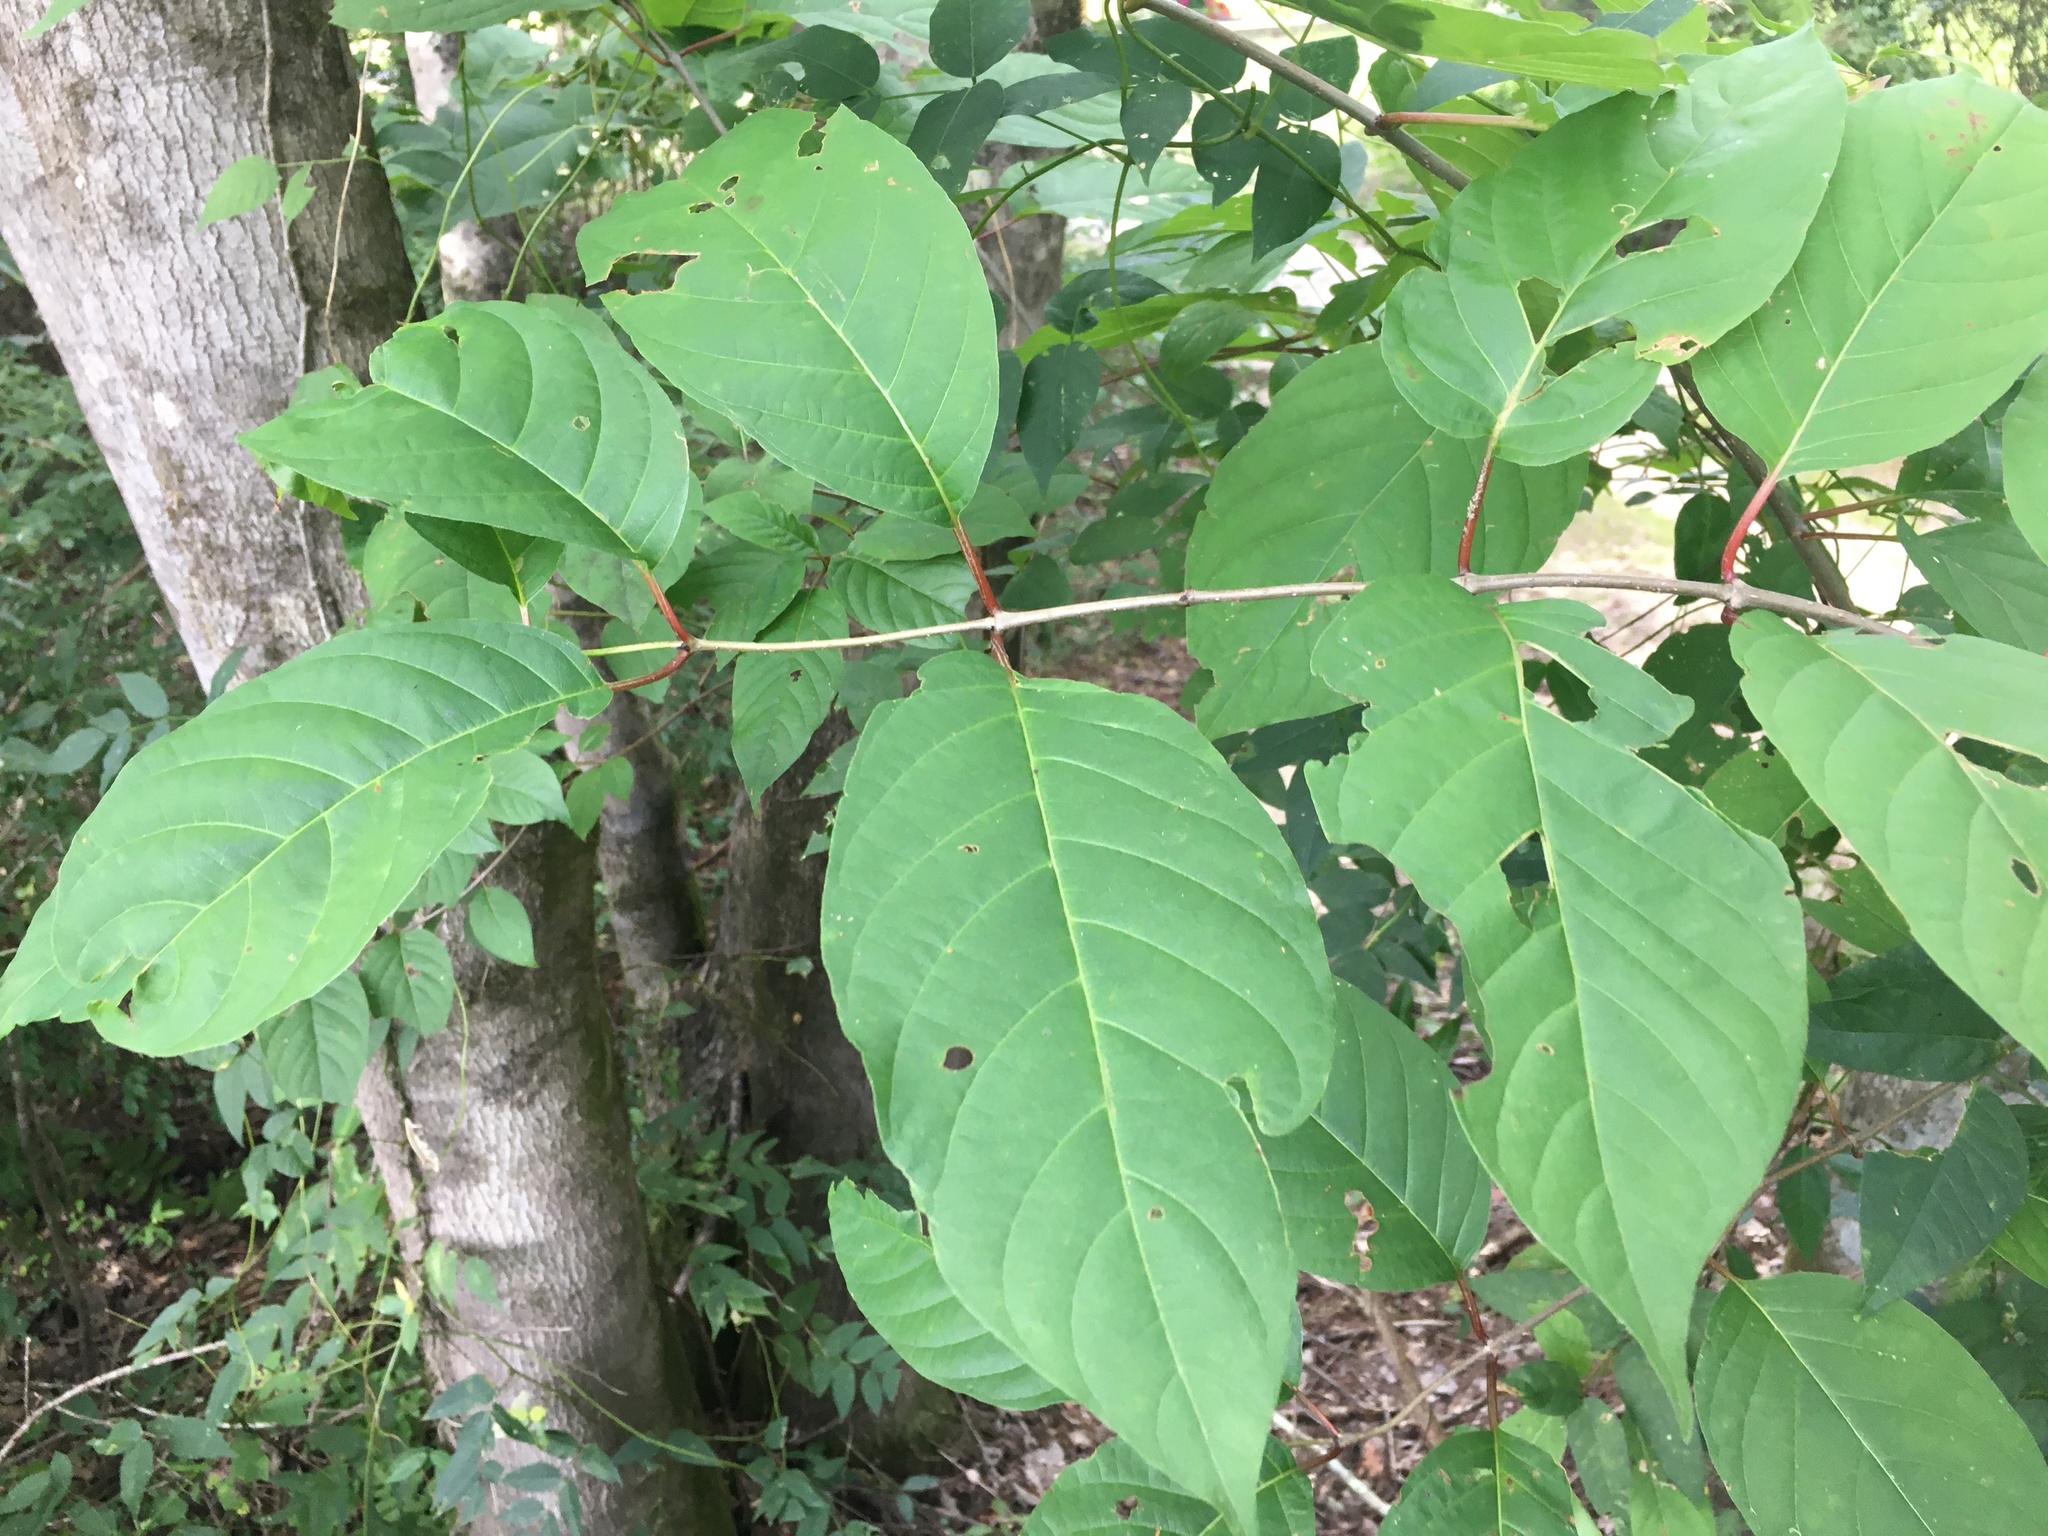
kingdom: Plantae
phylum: Tracheophyta
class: Magnoliopsida
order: Gentianales
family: Rubiaceae
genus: Cephalanthus
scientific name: Cephalanthus occidentalis
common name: Button-willow
